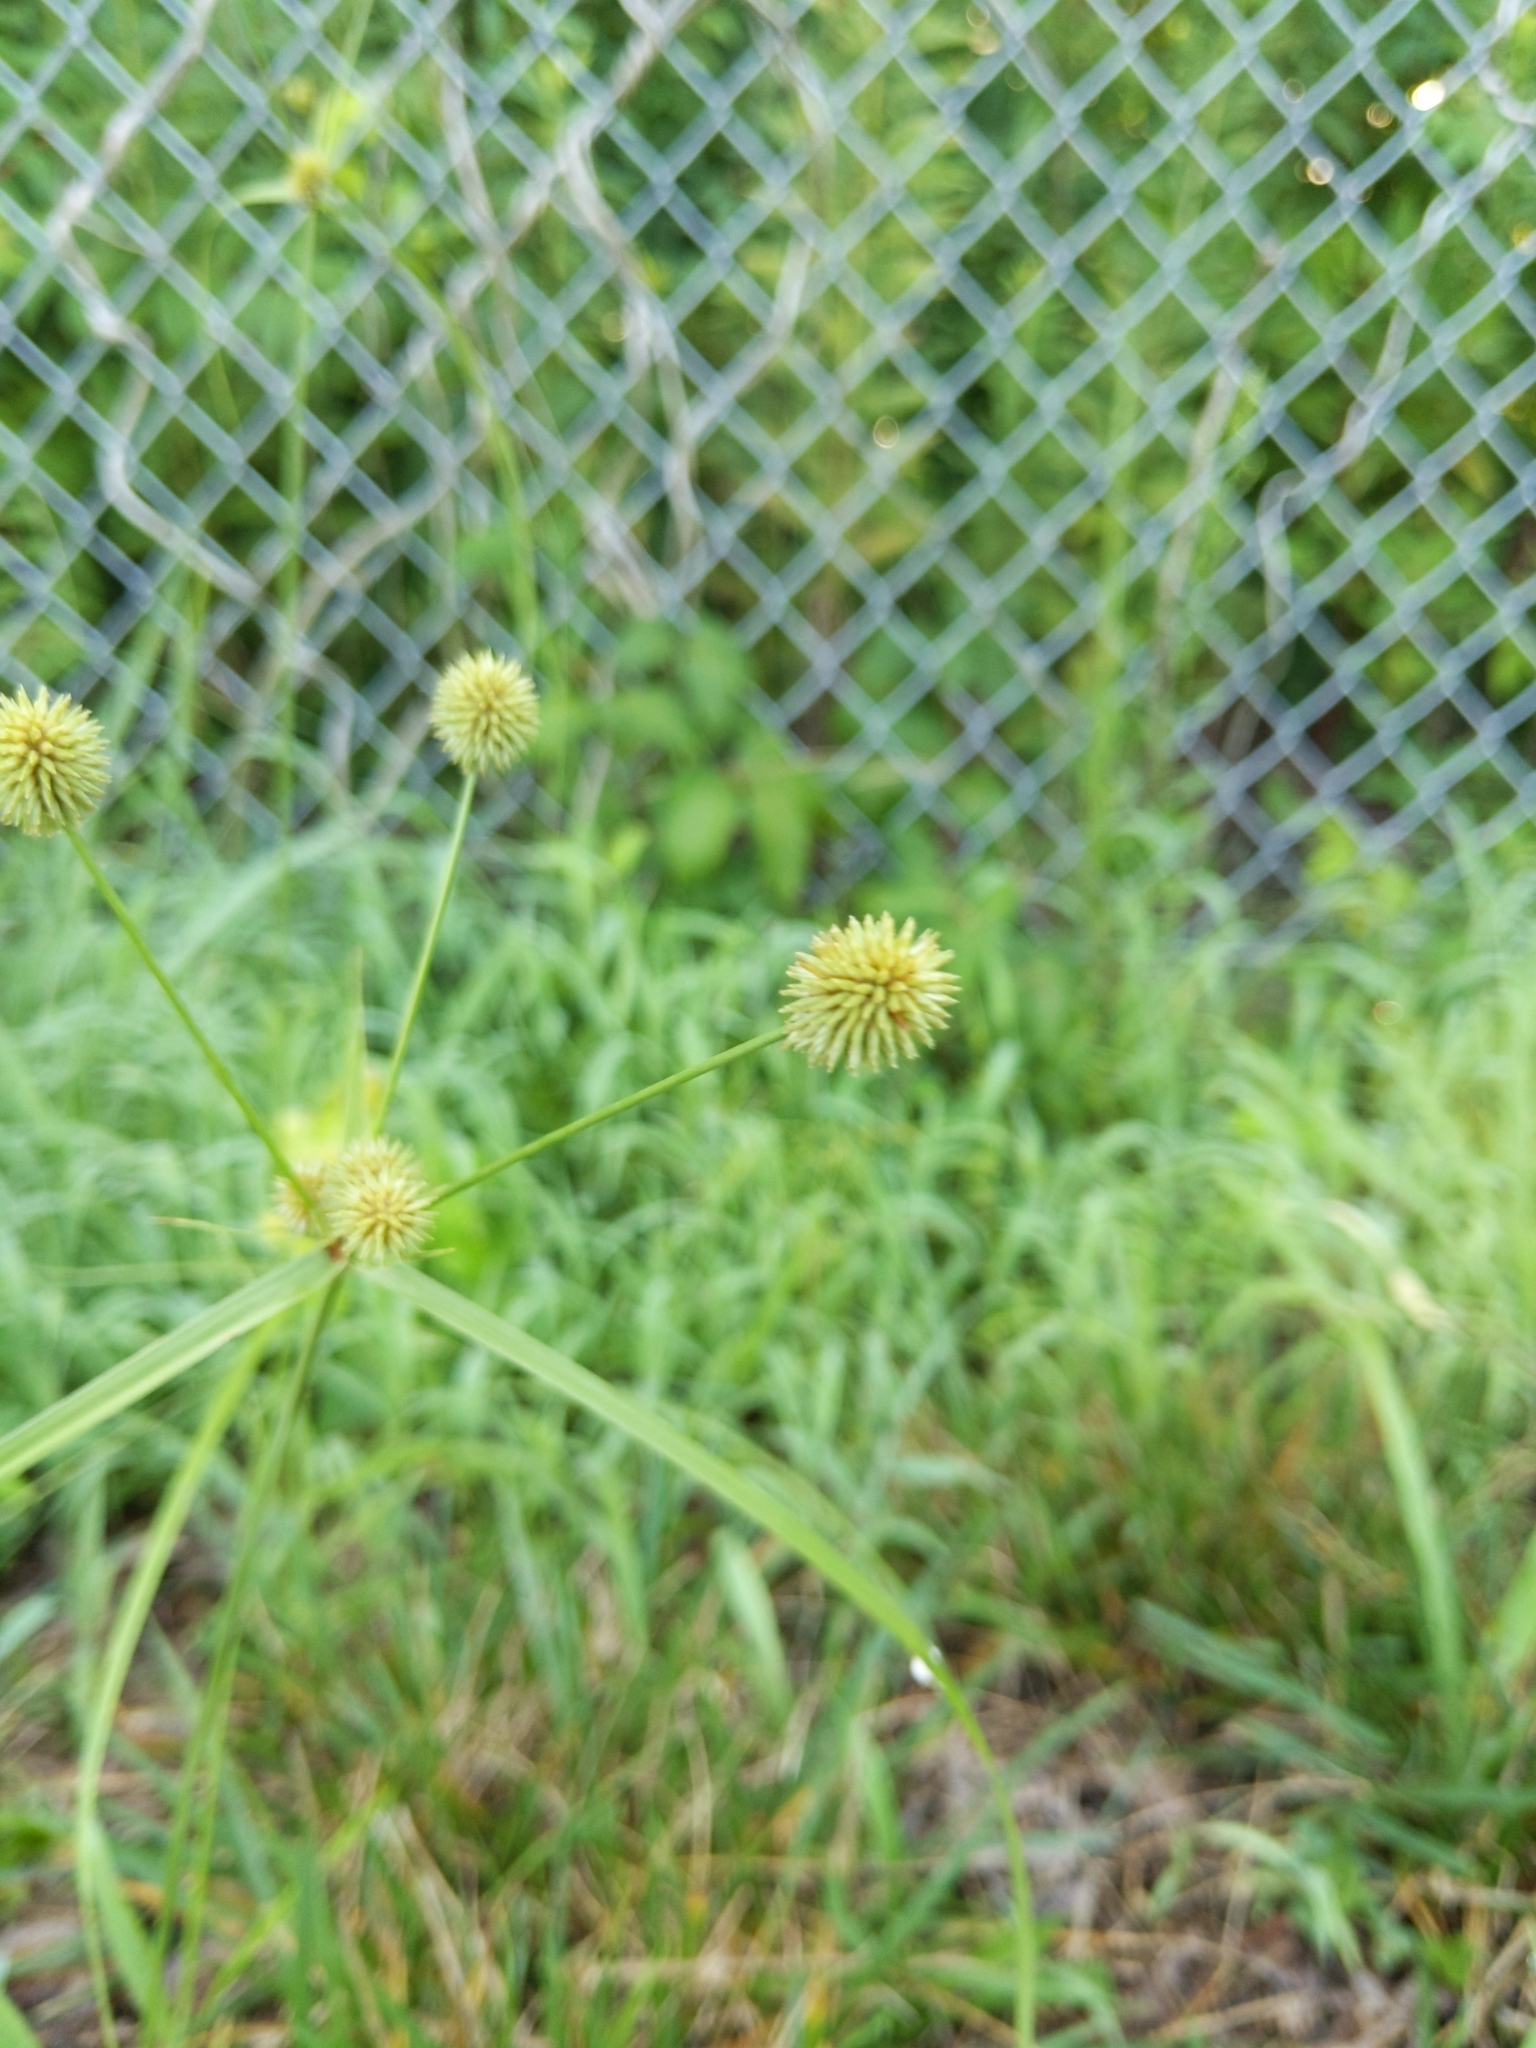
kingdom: Plantae
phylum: Tracheophyta
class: Liliopsida
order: Poales
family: Cyperaceae
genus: Cyperus
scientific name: Cyperus echinatus
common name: Teasel sedge
